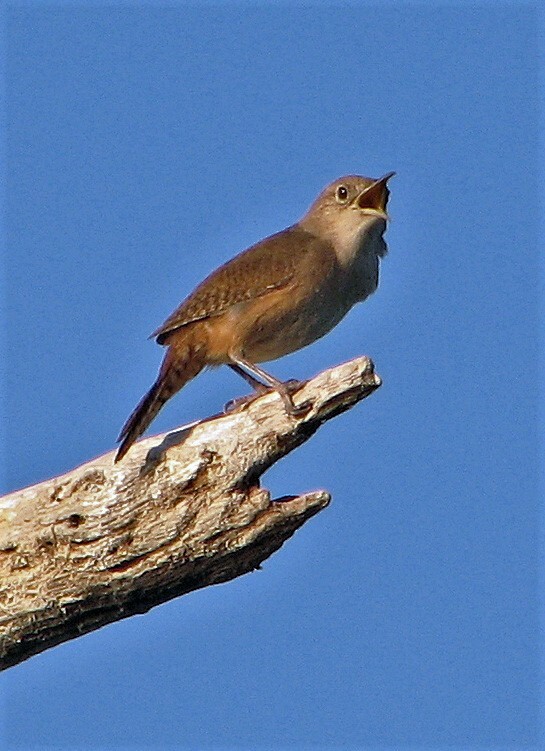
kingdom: Animalia
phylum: Chordata
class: Aves
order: Passeriformes
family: Troglodytidae
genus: Troglodytes
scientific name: Troglodytes aedon
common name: House wren
